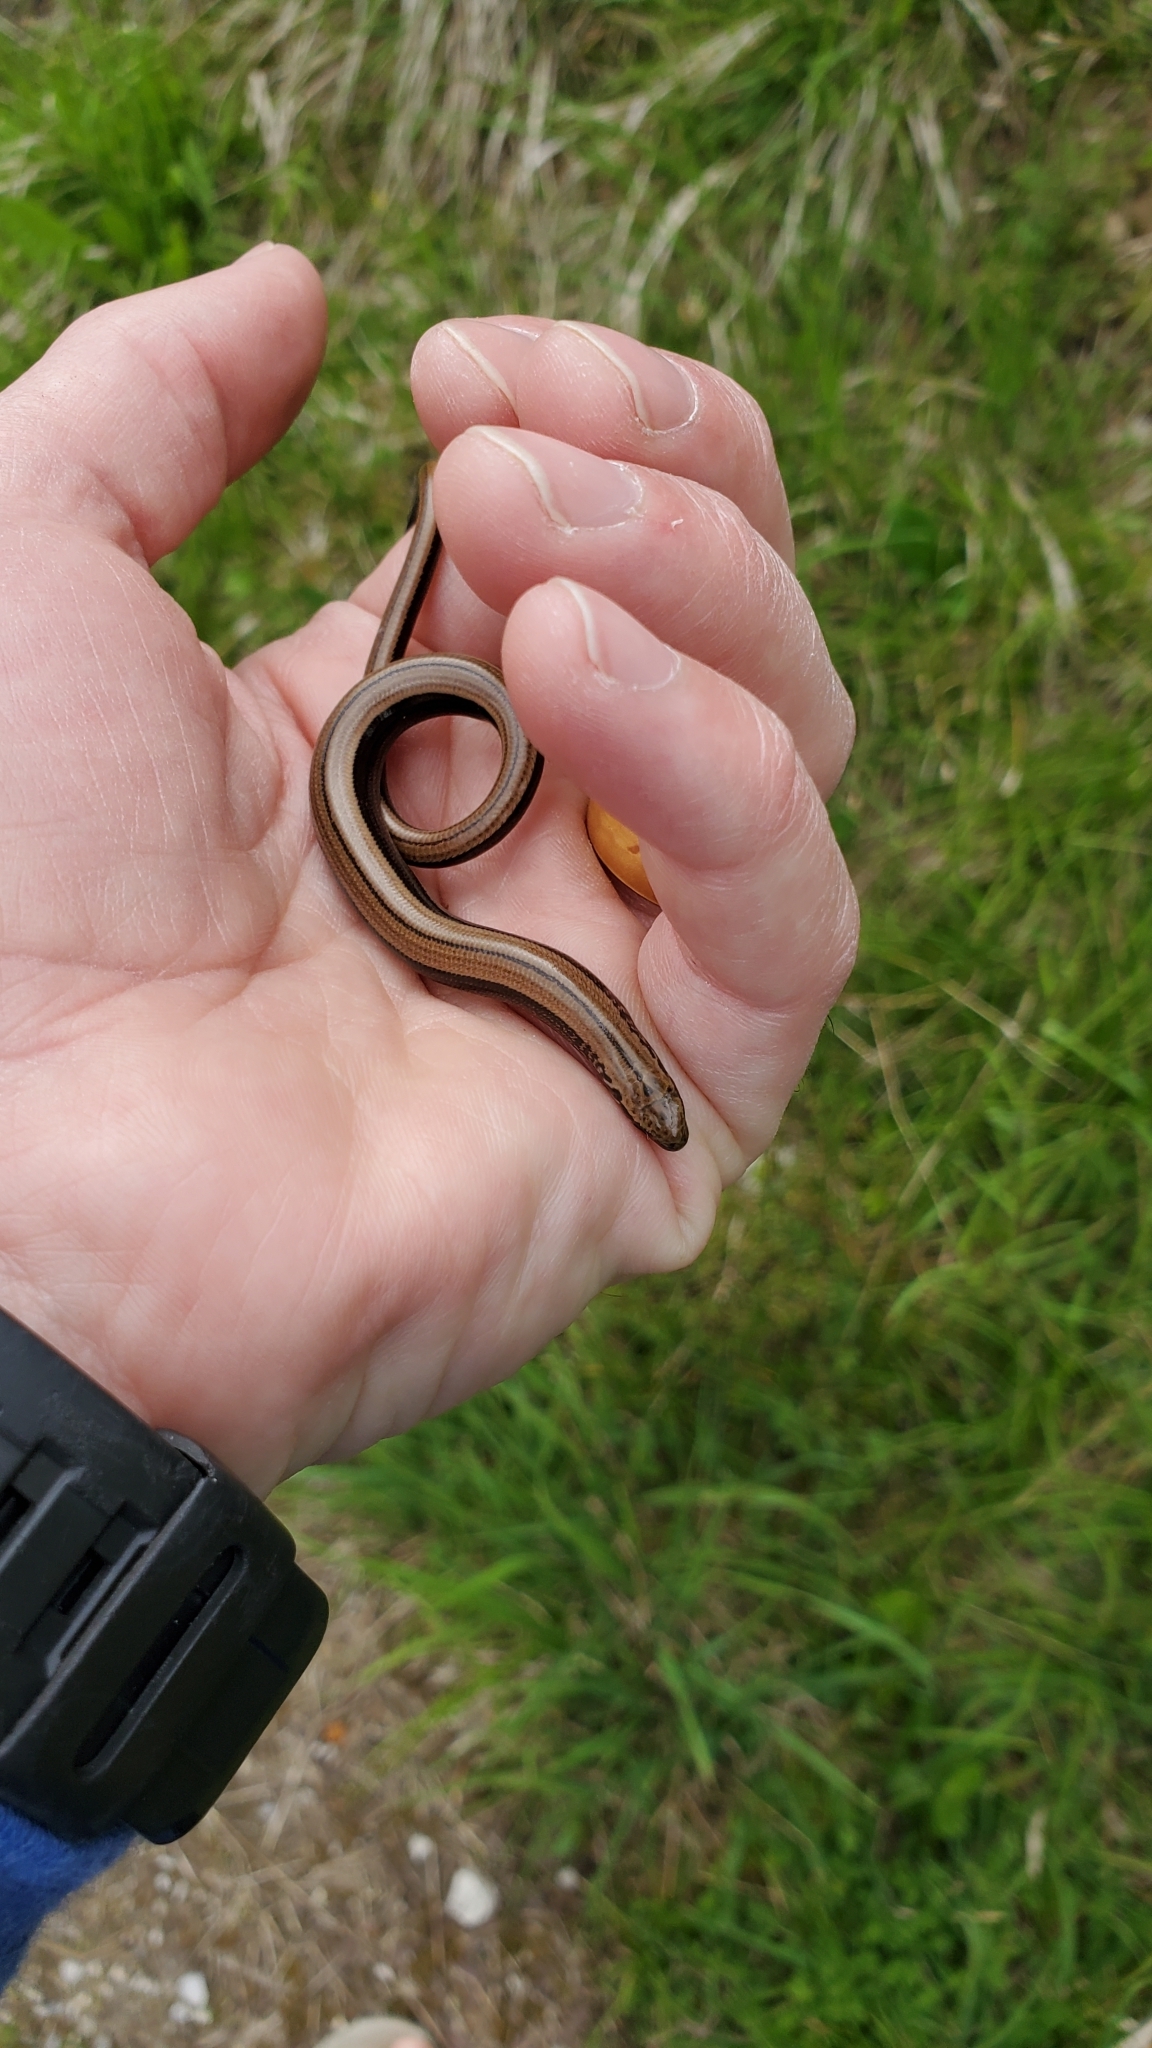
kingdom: Animalia
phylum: Chordata
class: Squamata
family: Anguidae
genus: Anguis
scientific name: Anguis fragilis
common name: Slow worm
